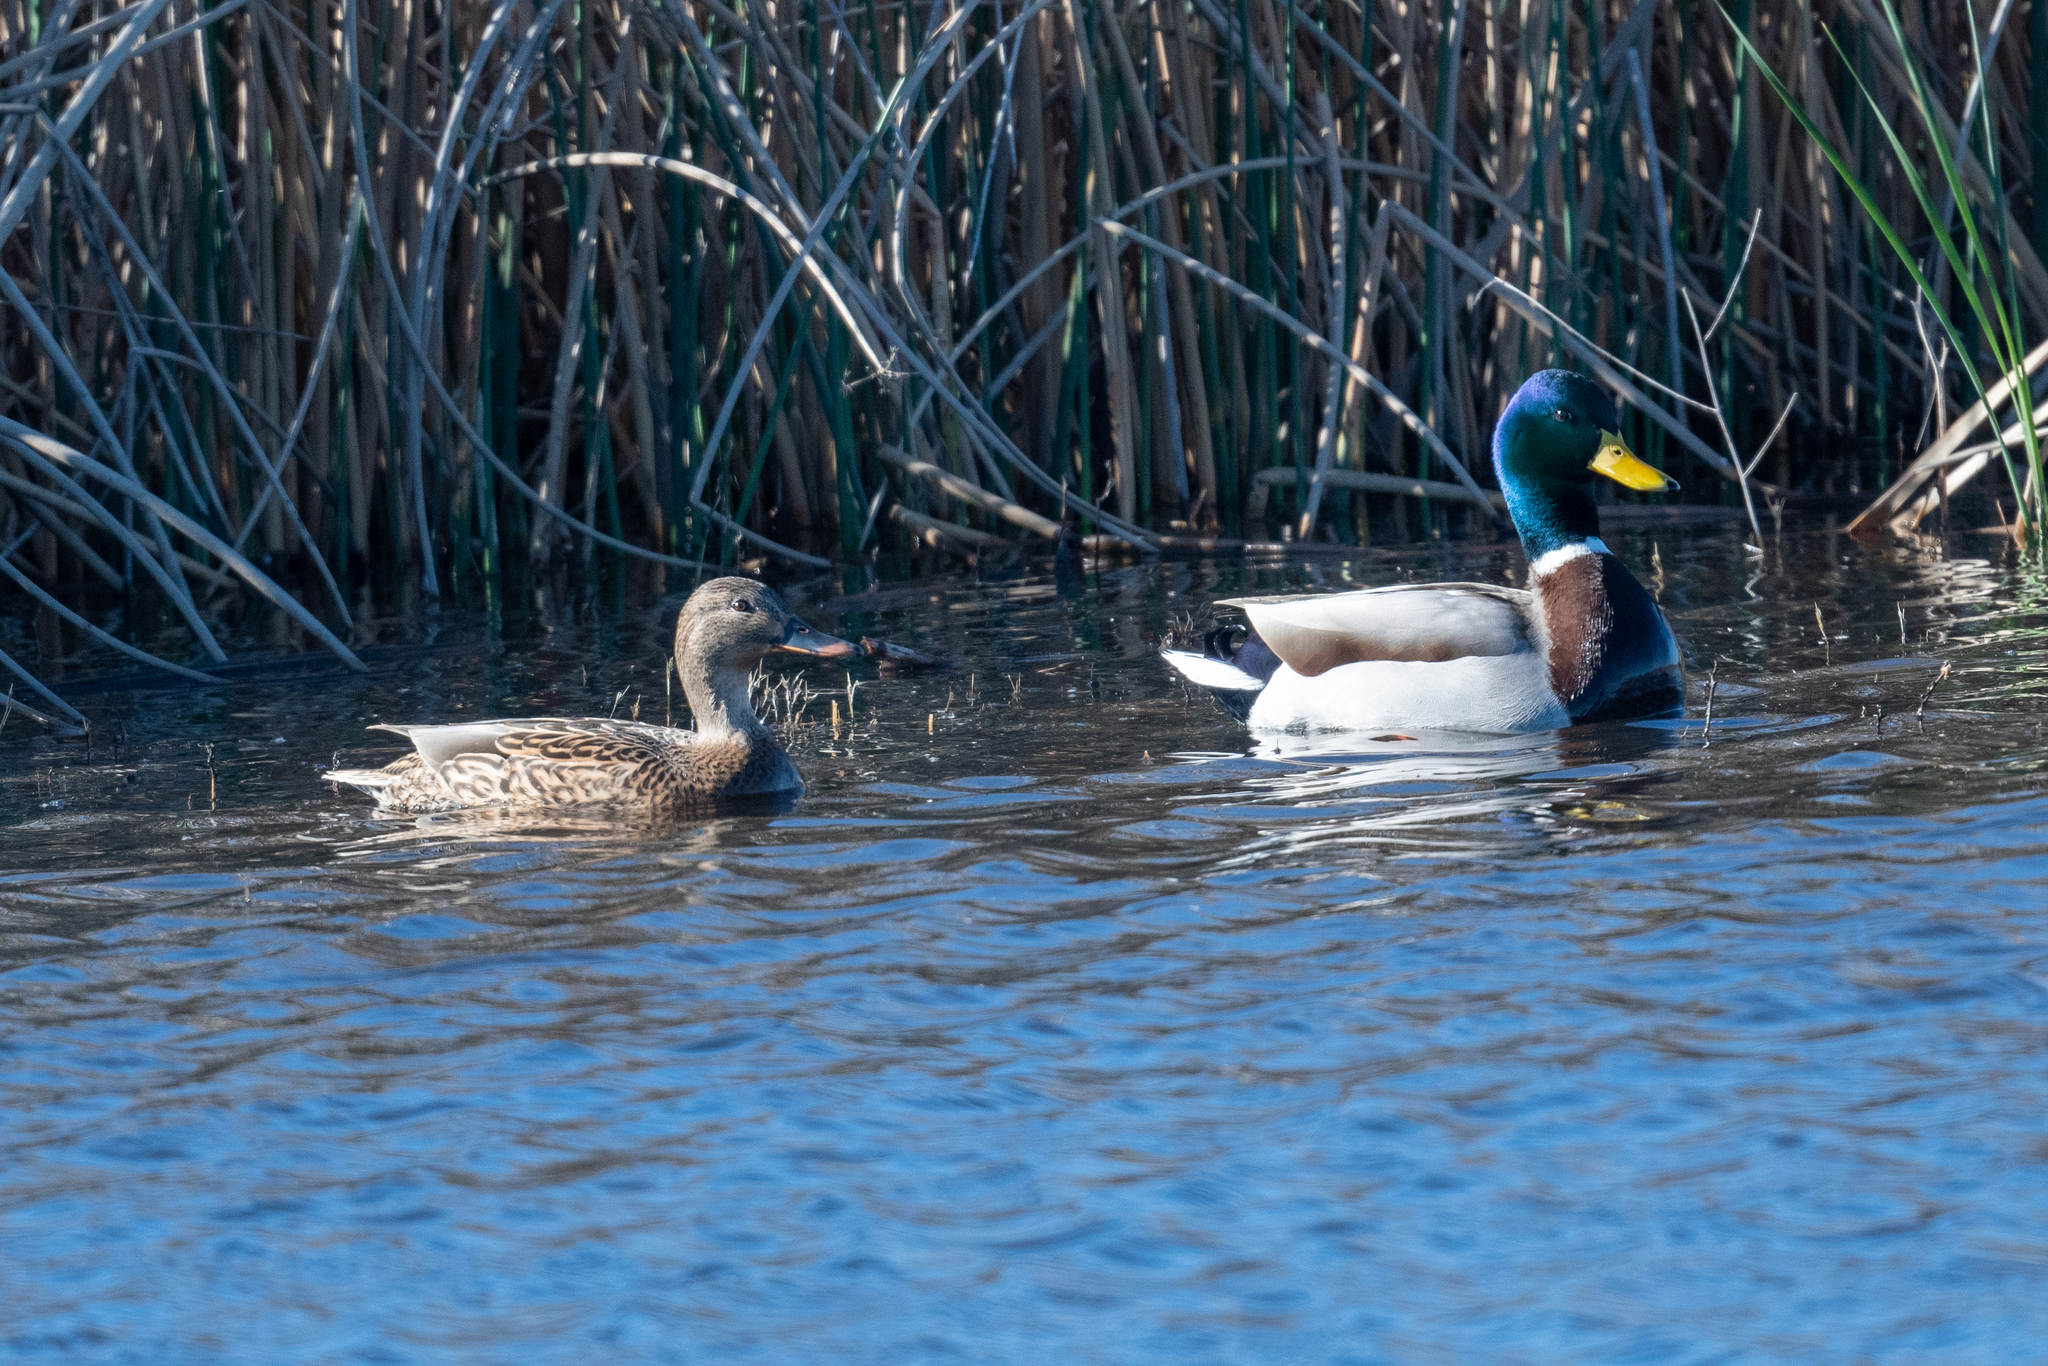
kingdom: Animalia
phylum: Chordata
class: Aves
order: Anseriformes
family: Anatidae
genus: Anas
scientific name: Anas platyrhynchos
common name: Mallard
